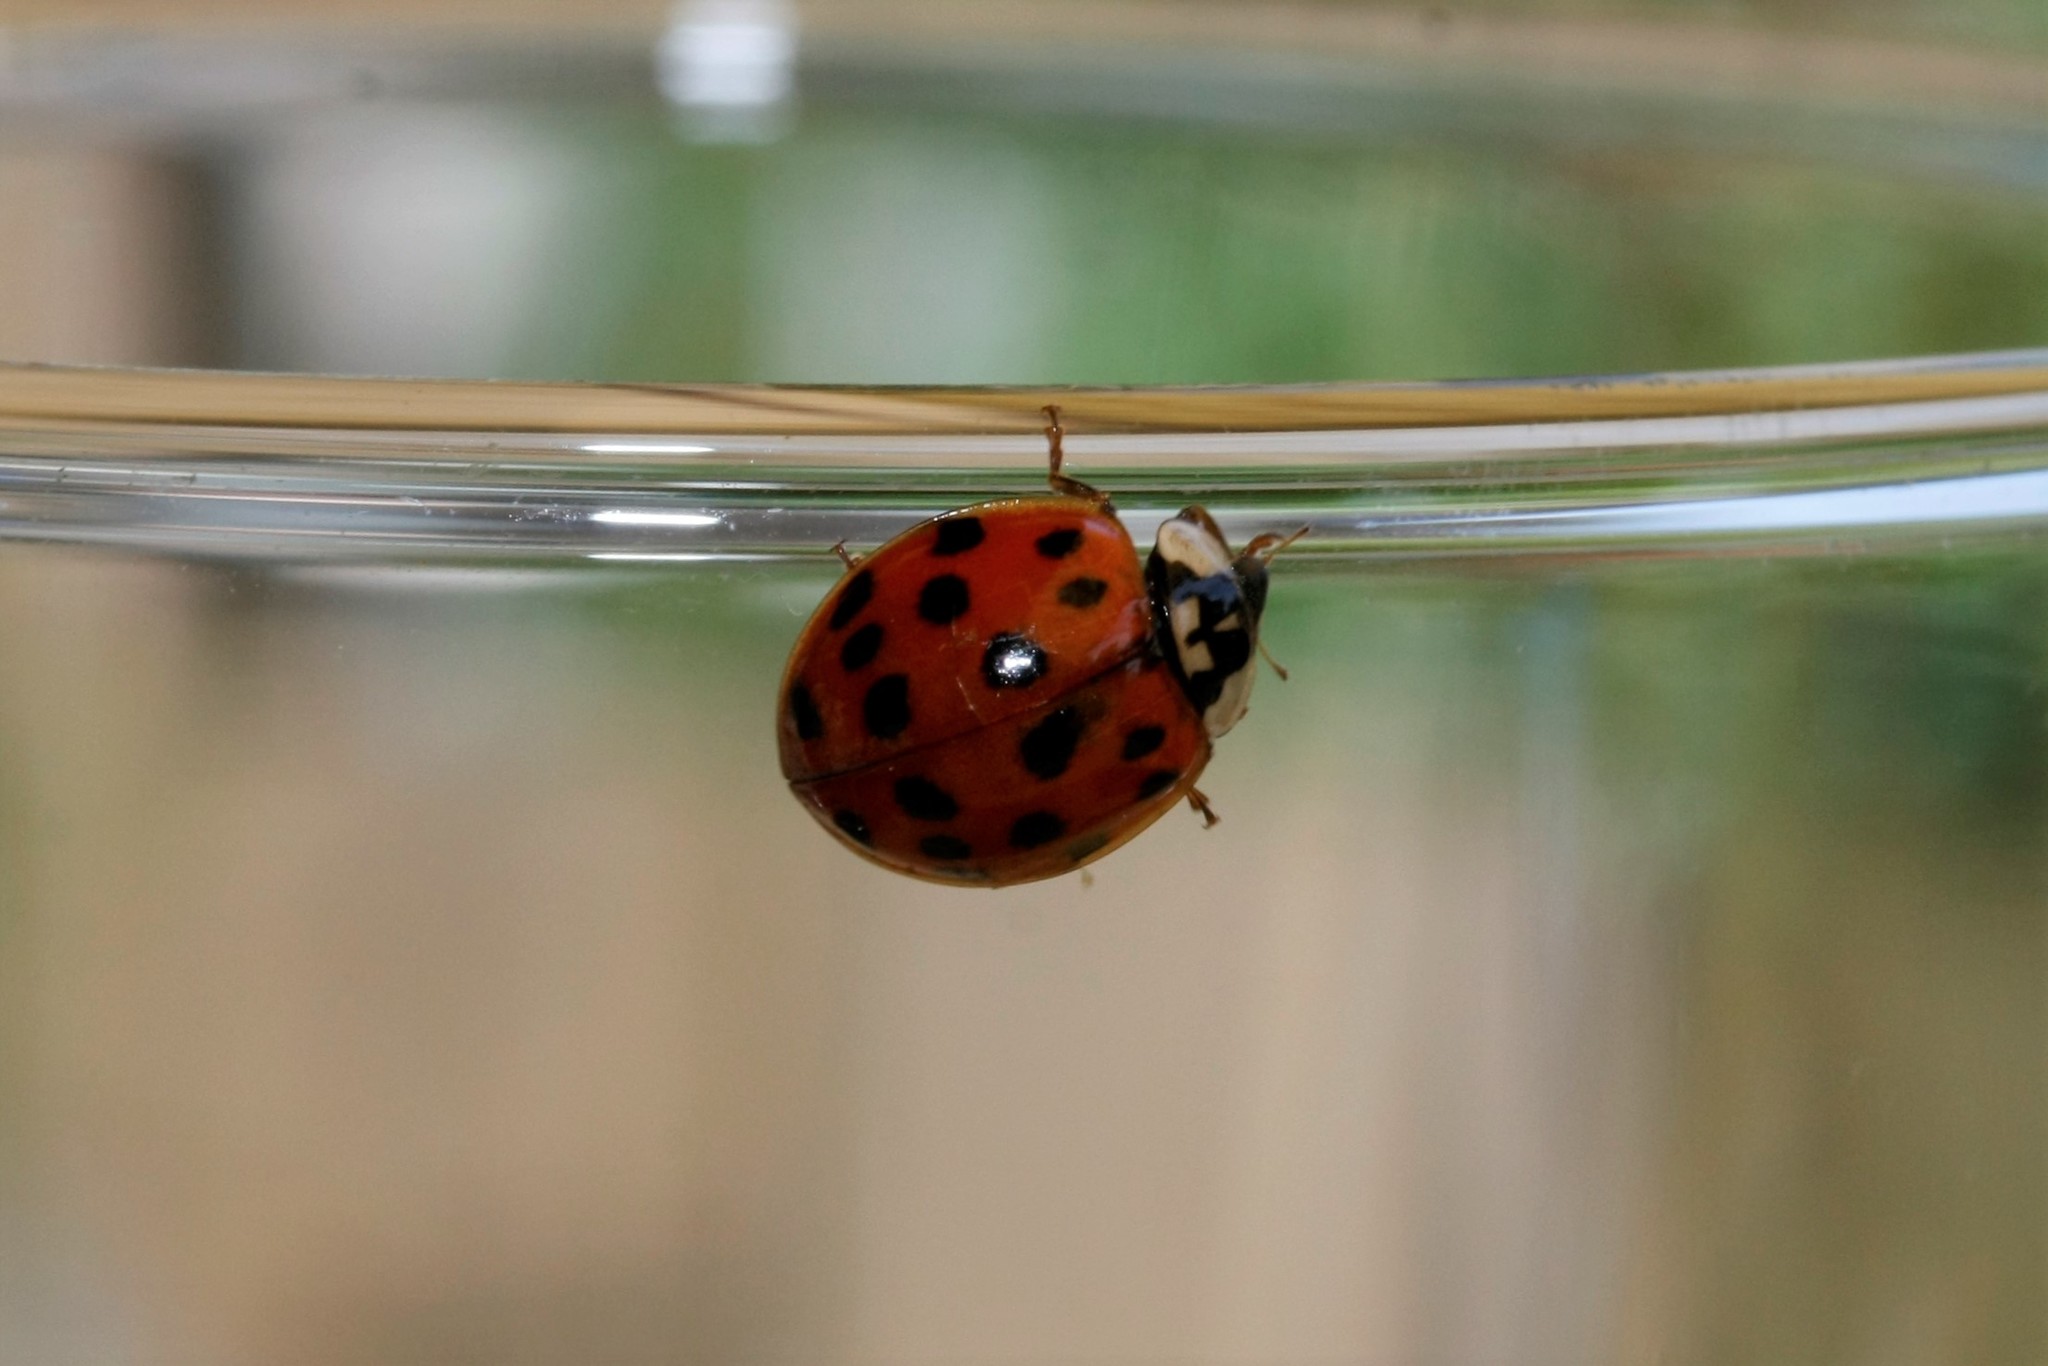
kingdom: Animalia
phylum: Arthropoda
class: Insecta
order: Coleoptera
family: Coccinellidae
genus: Harmonia
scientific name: Harmonia axyridis
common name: Harlequin ladybird
